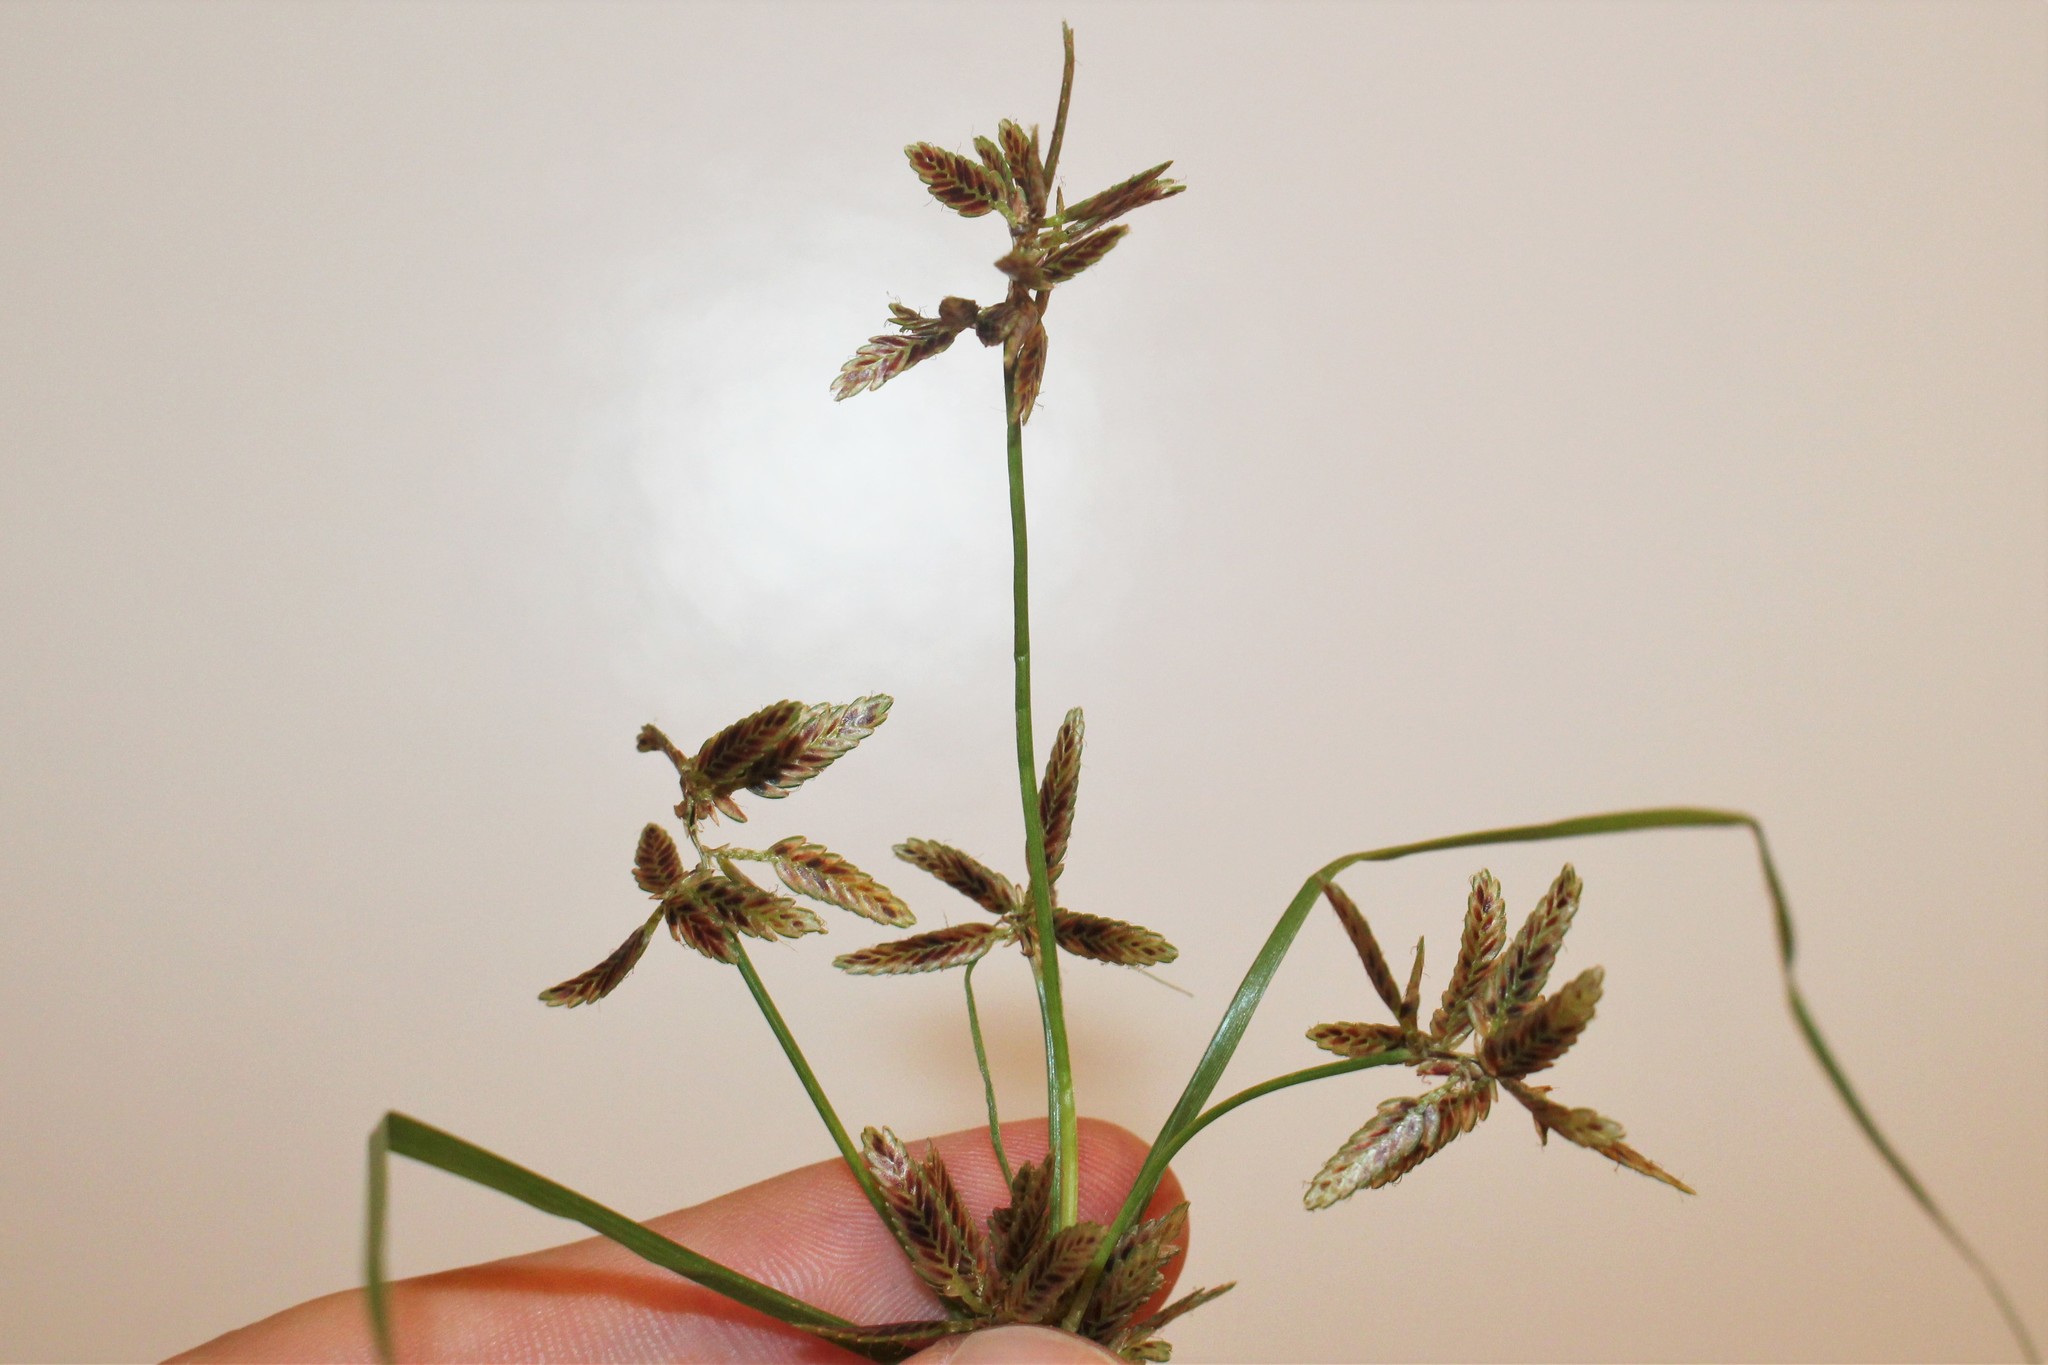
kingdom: Plantae
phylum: Tracheophyta
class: Liliopsida
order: Poales
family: Cyperaceae
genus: Cyperus
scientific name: Cyperus bipartitus
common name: Brook flatsedge
